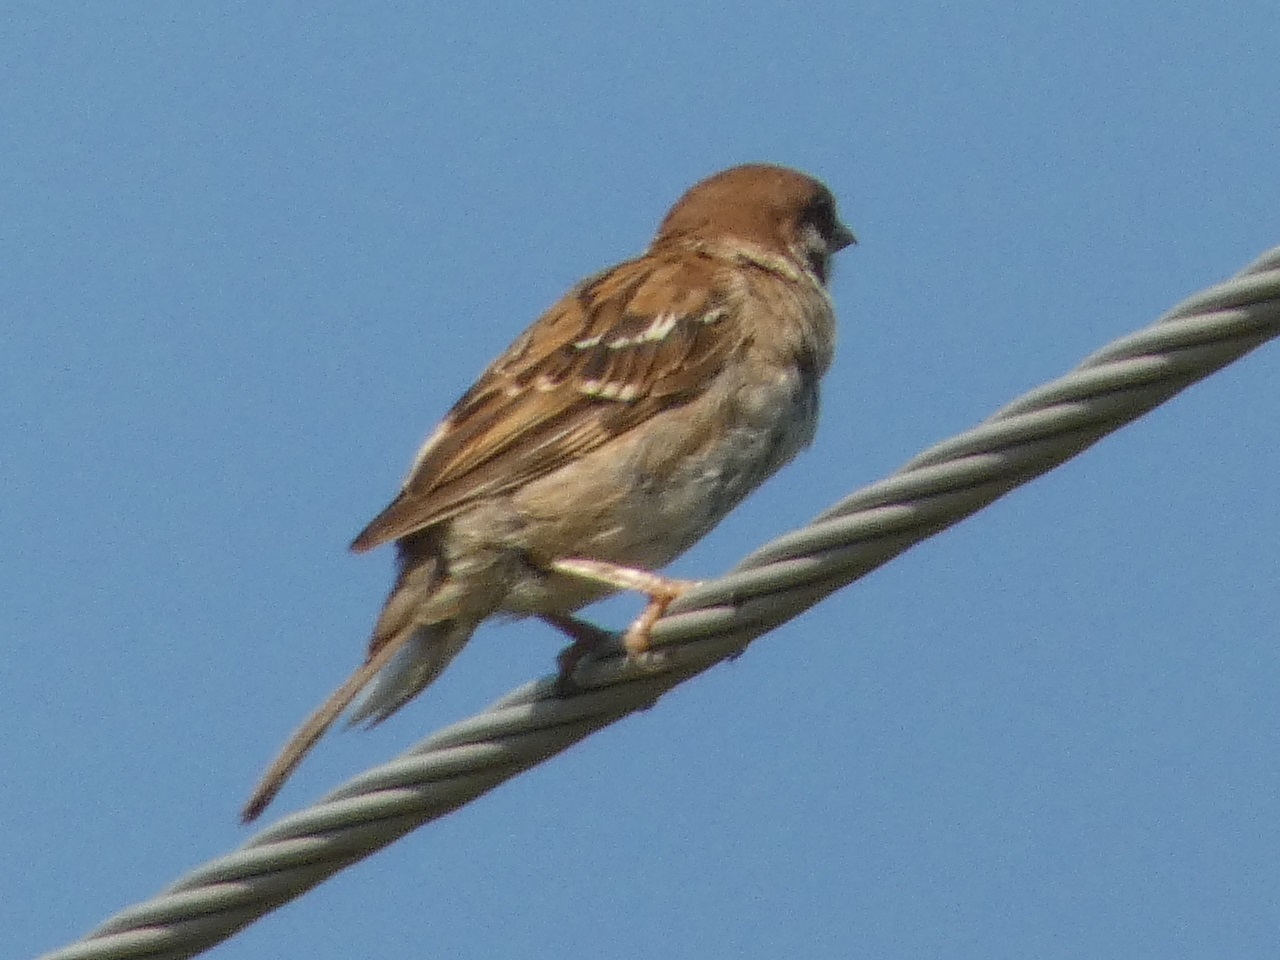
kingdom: Animalia
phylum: Chordata
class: Aves
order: Passeriformes
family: Passeridae
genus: Passer
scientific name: Passer montanus
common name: Eurasian tree sparrow
